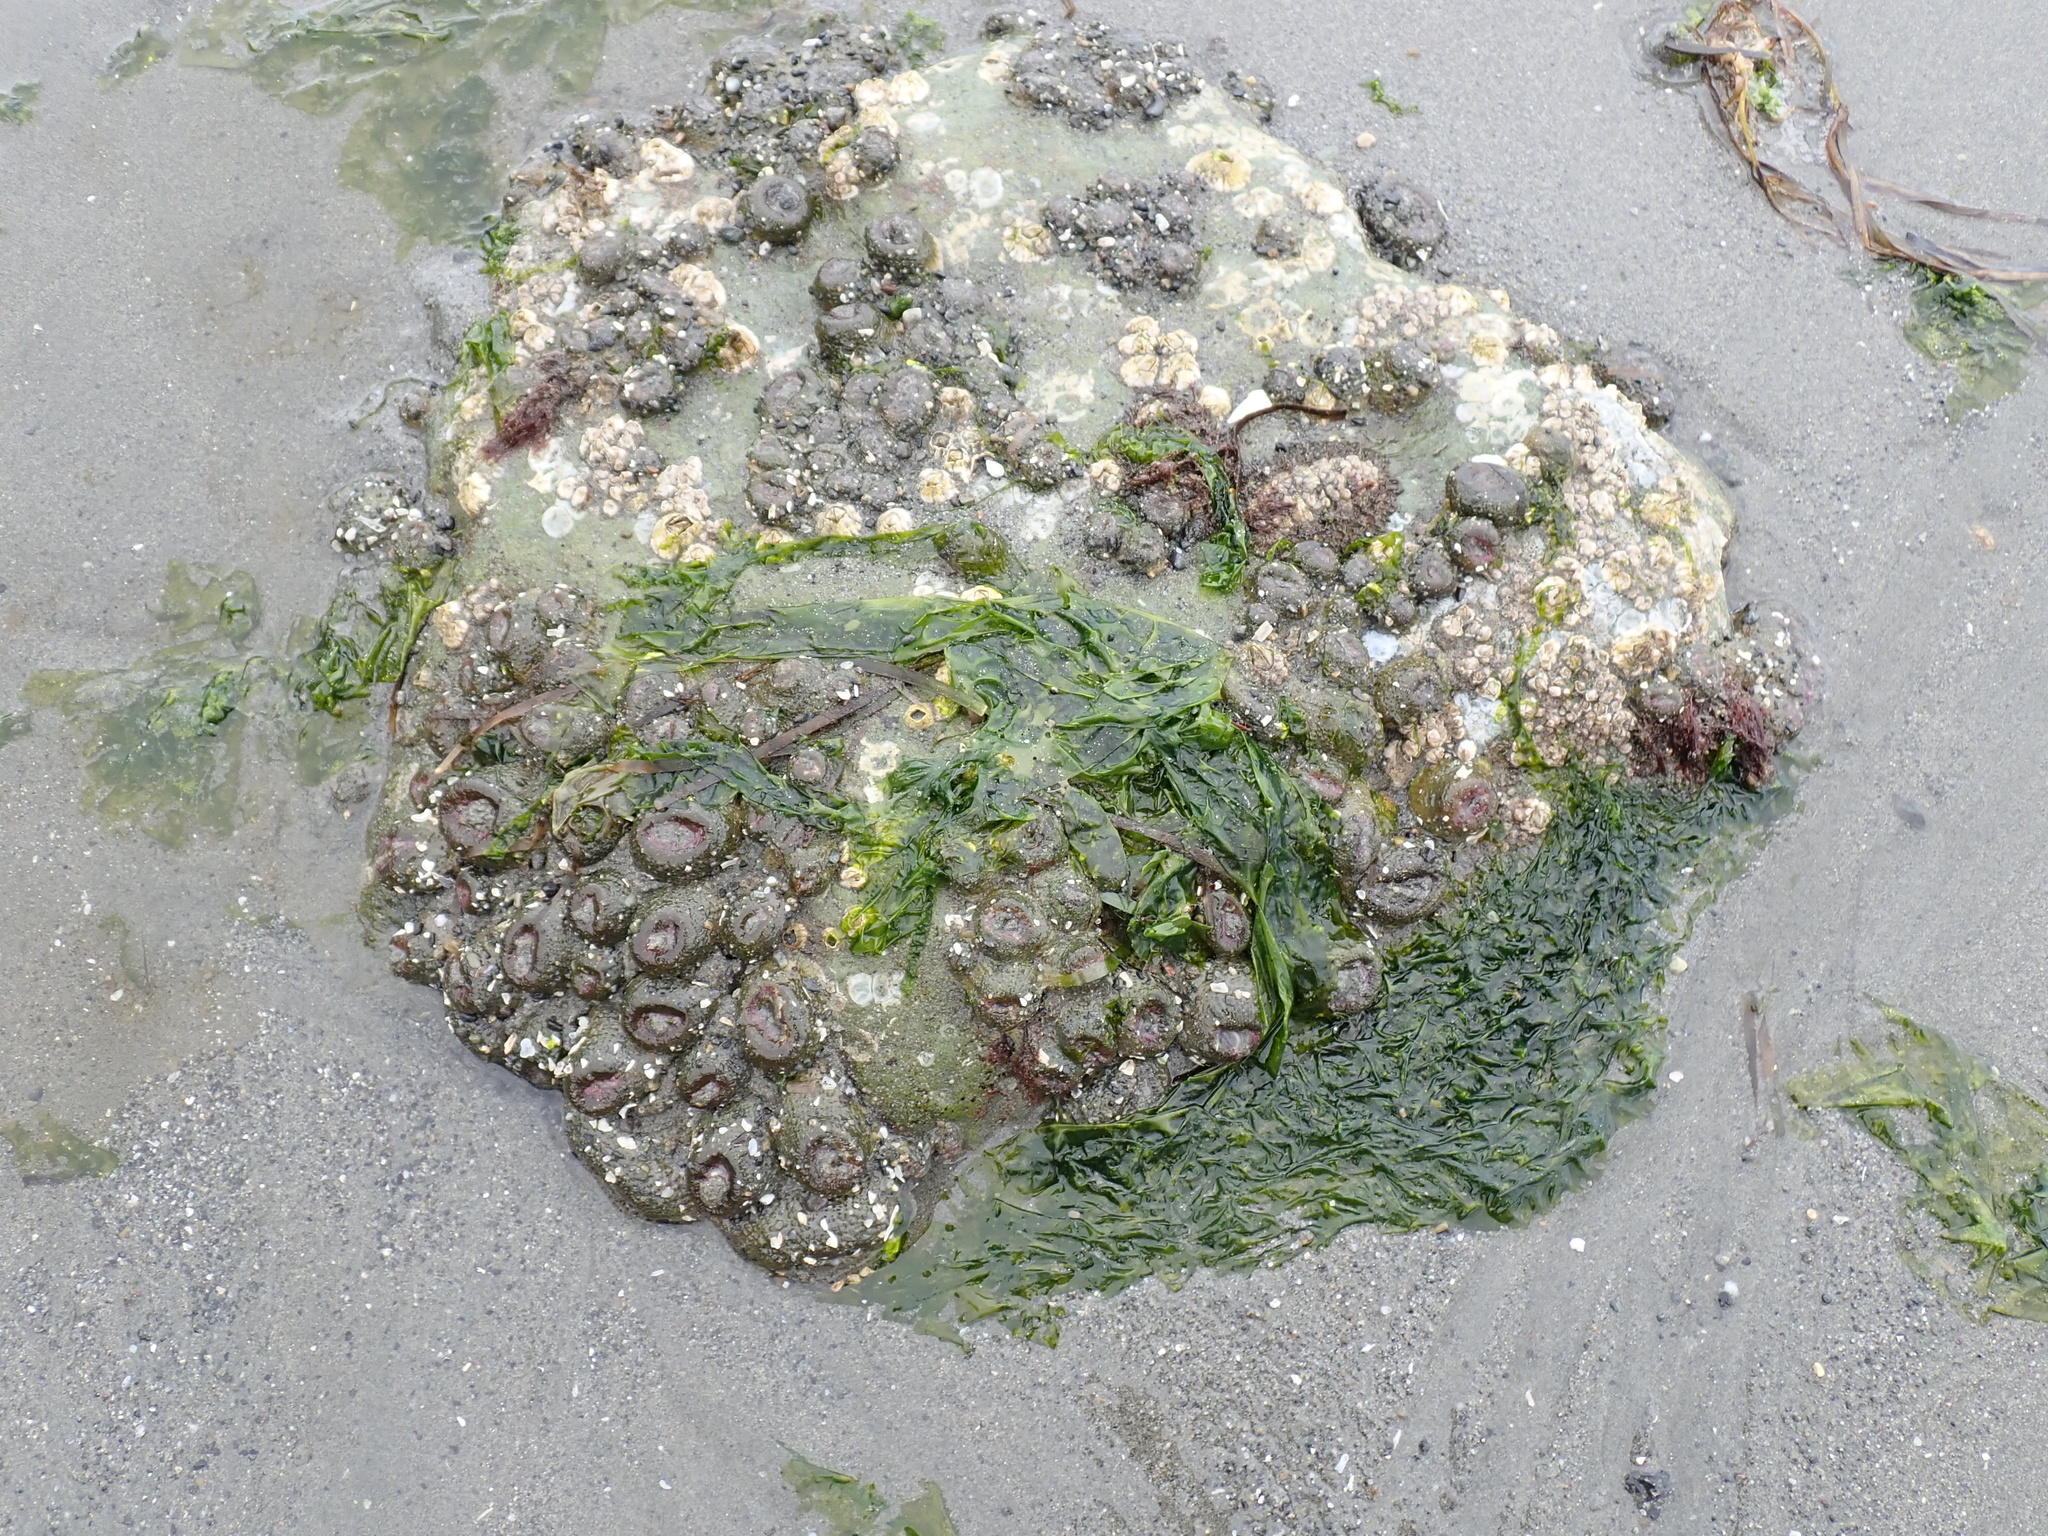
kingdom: Animalia
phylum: Mollusca
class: Polyplacophora
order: Chitonida
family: Mopaliidae
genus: Mopalia
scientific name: Mopalia muscosa
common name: Mossy chiton
